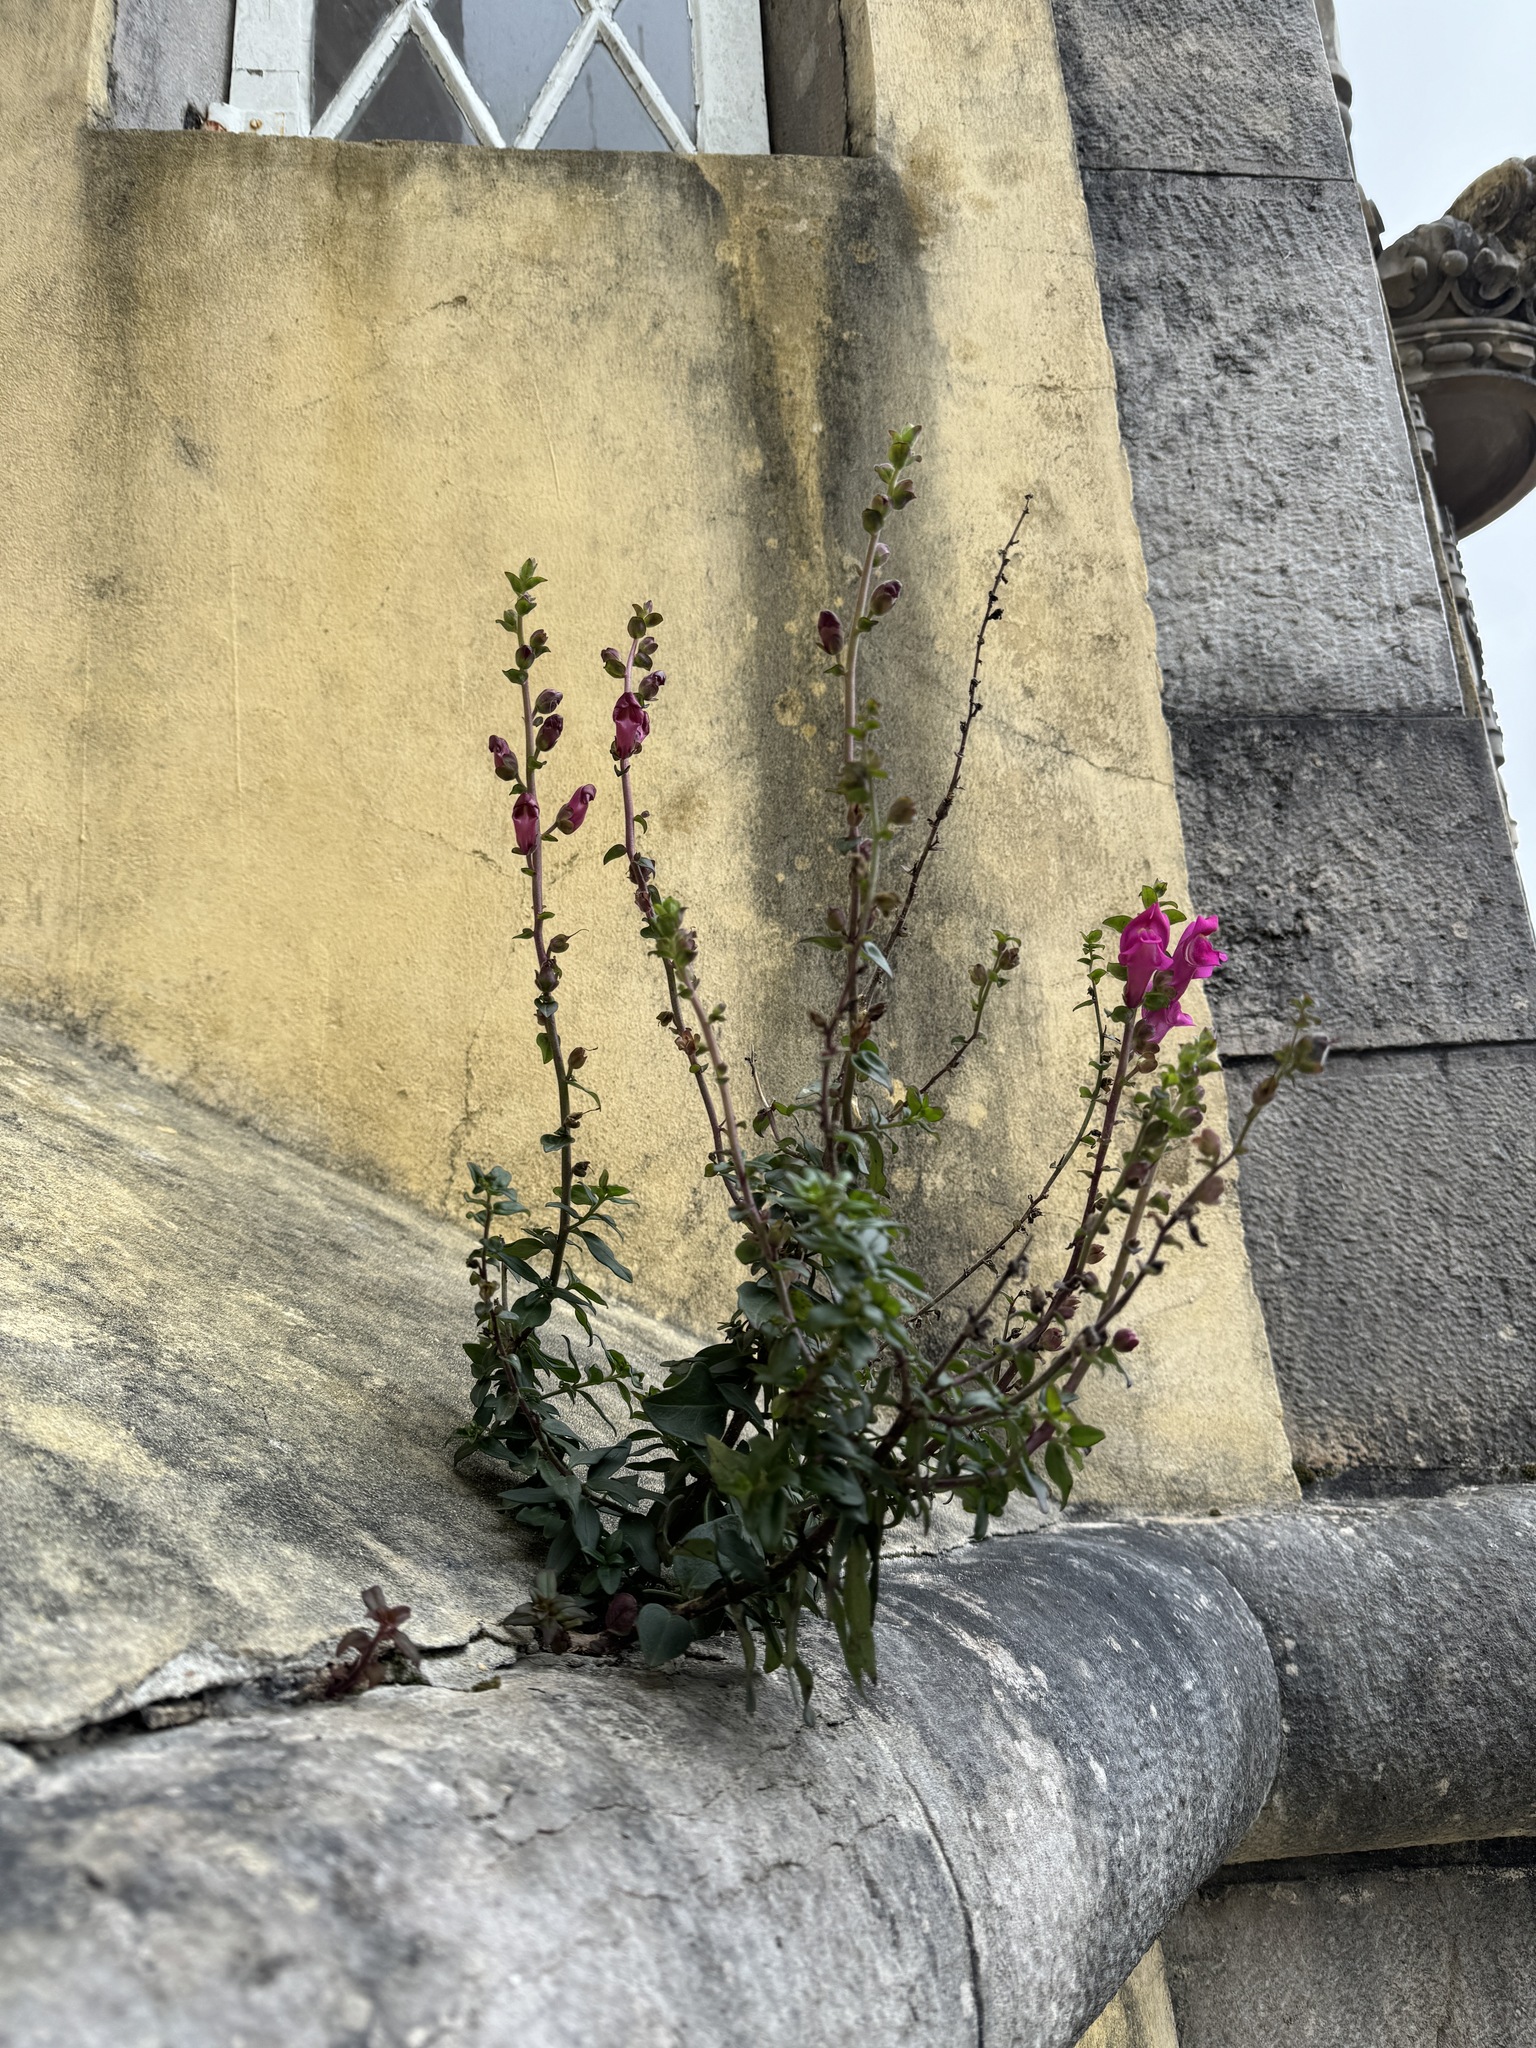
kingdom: Plantae
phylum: Tracheophyta
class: Magnoliopsida
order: Lamiales
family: Plantaginaceae
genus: Antirrhinum
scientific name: Antirrhinum linkianum
